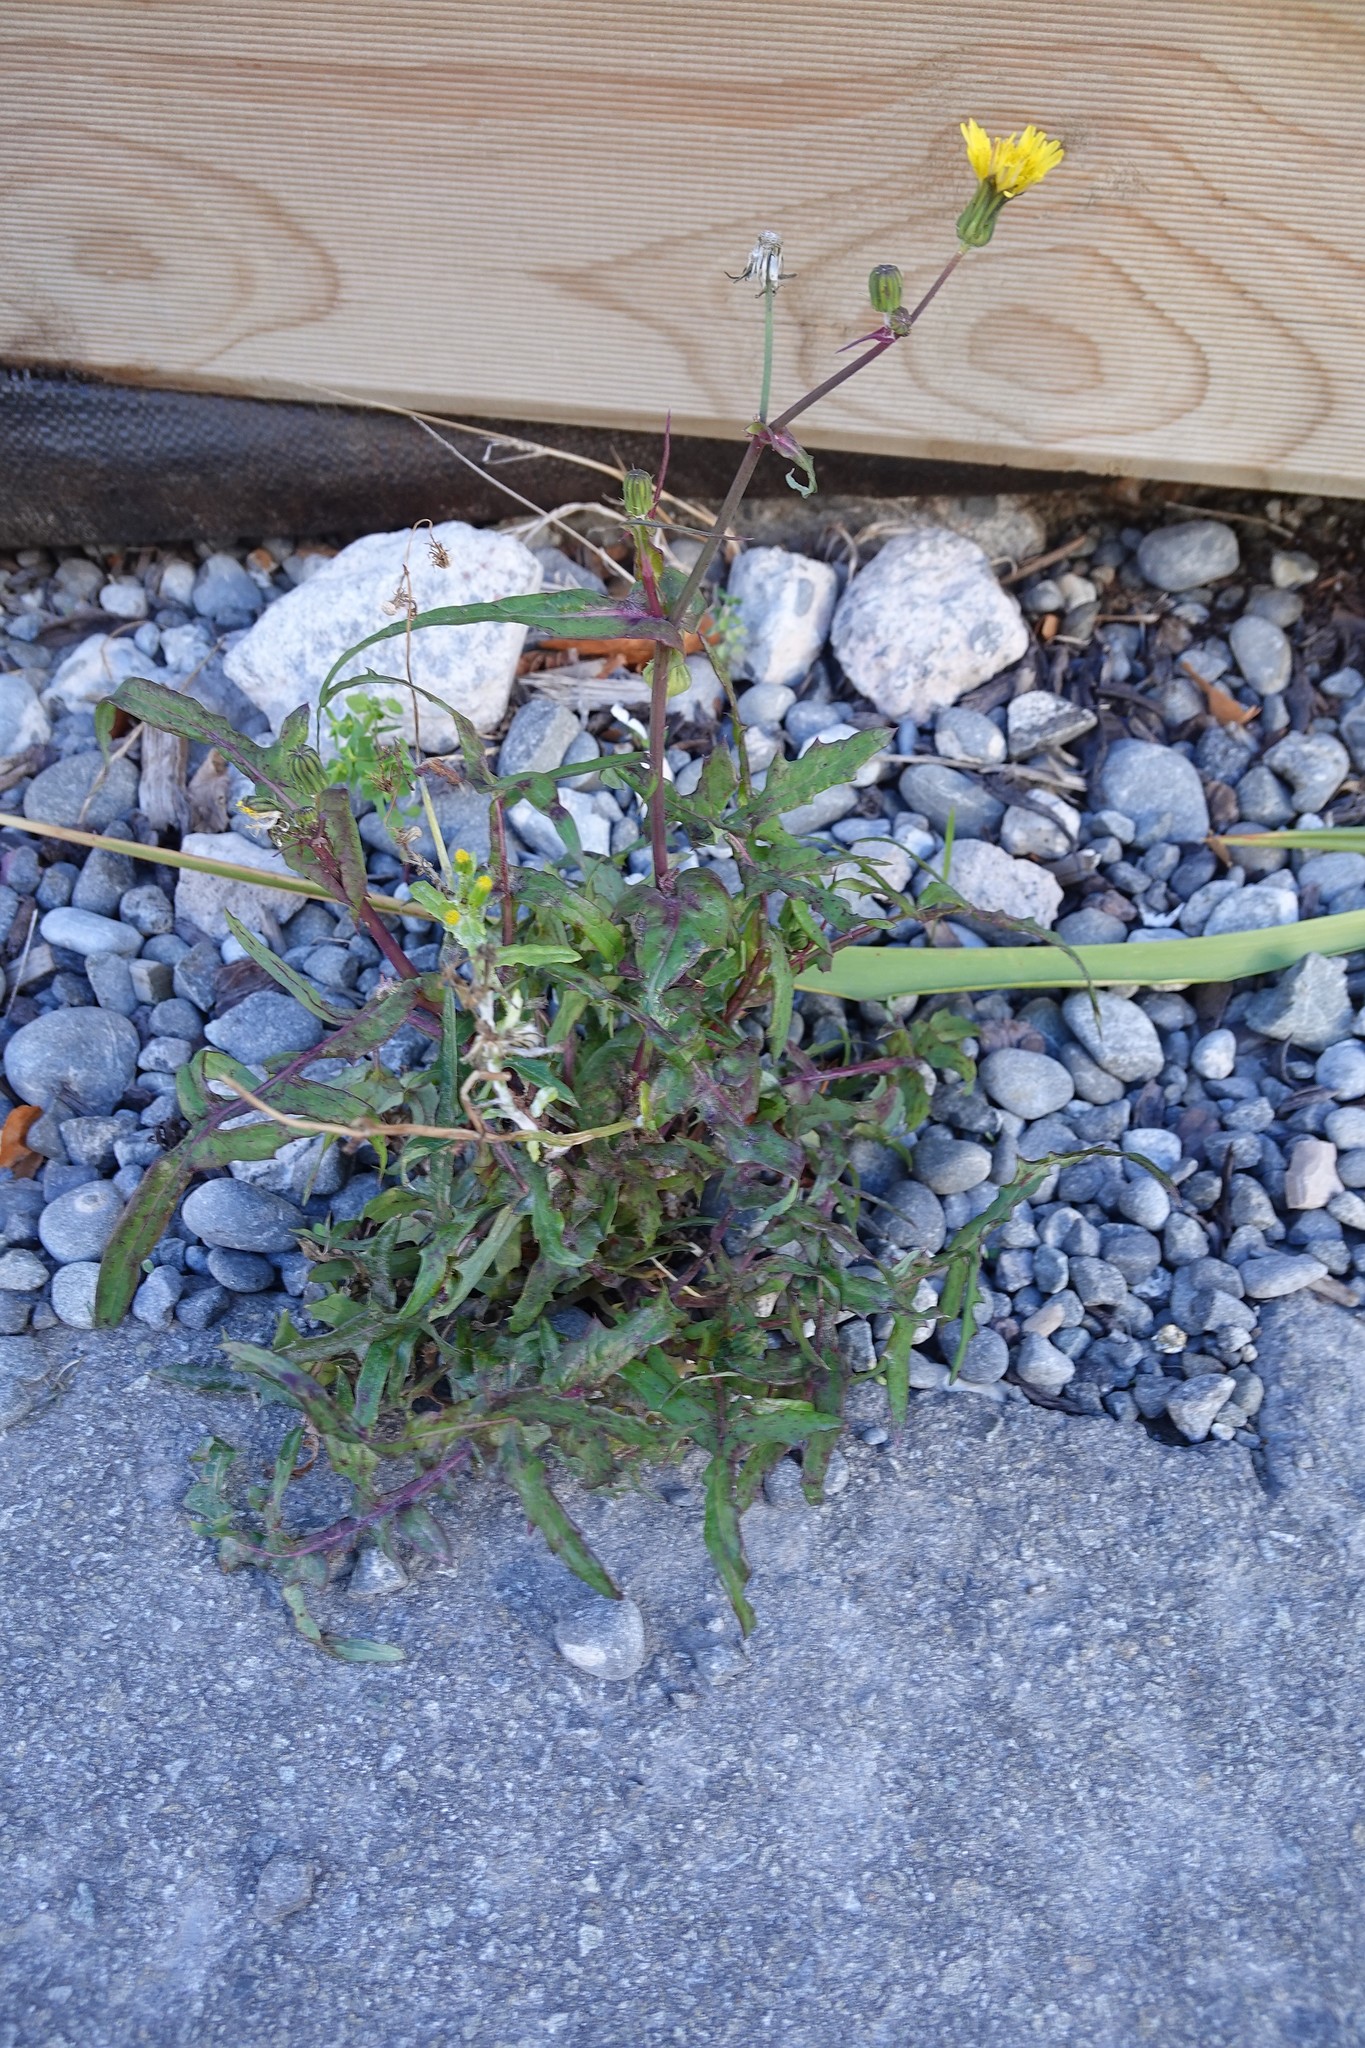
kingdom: Plantae
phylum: Tracheophyta
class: Magnoliopsida
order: Asterales
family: Asteraceae
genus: Sonchus
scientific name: Sonchus oleraceus
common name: Common sowthistle
